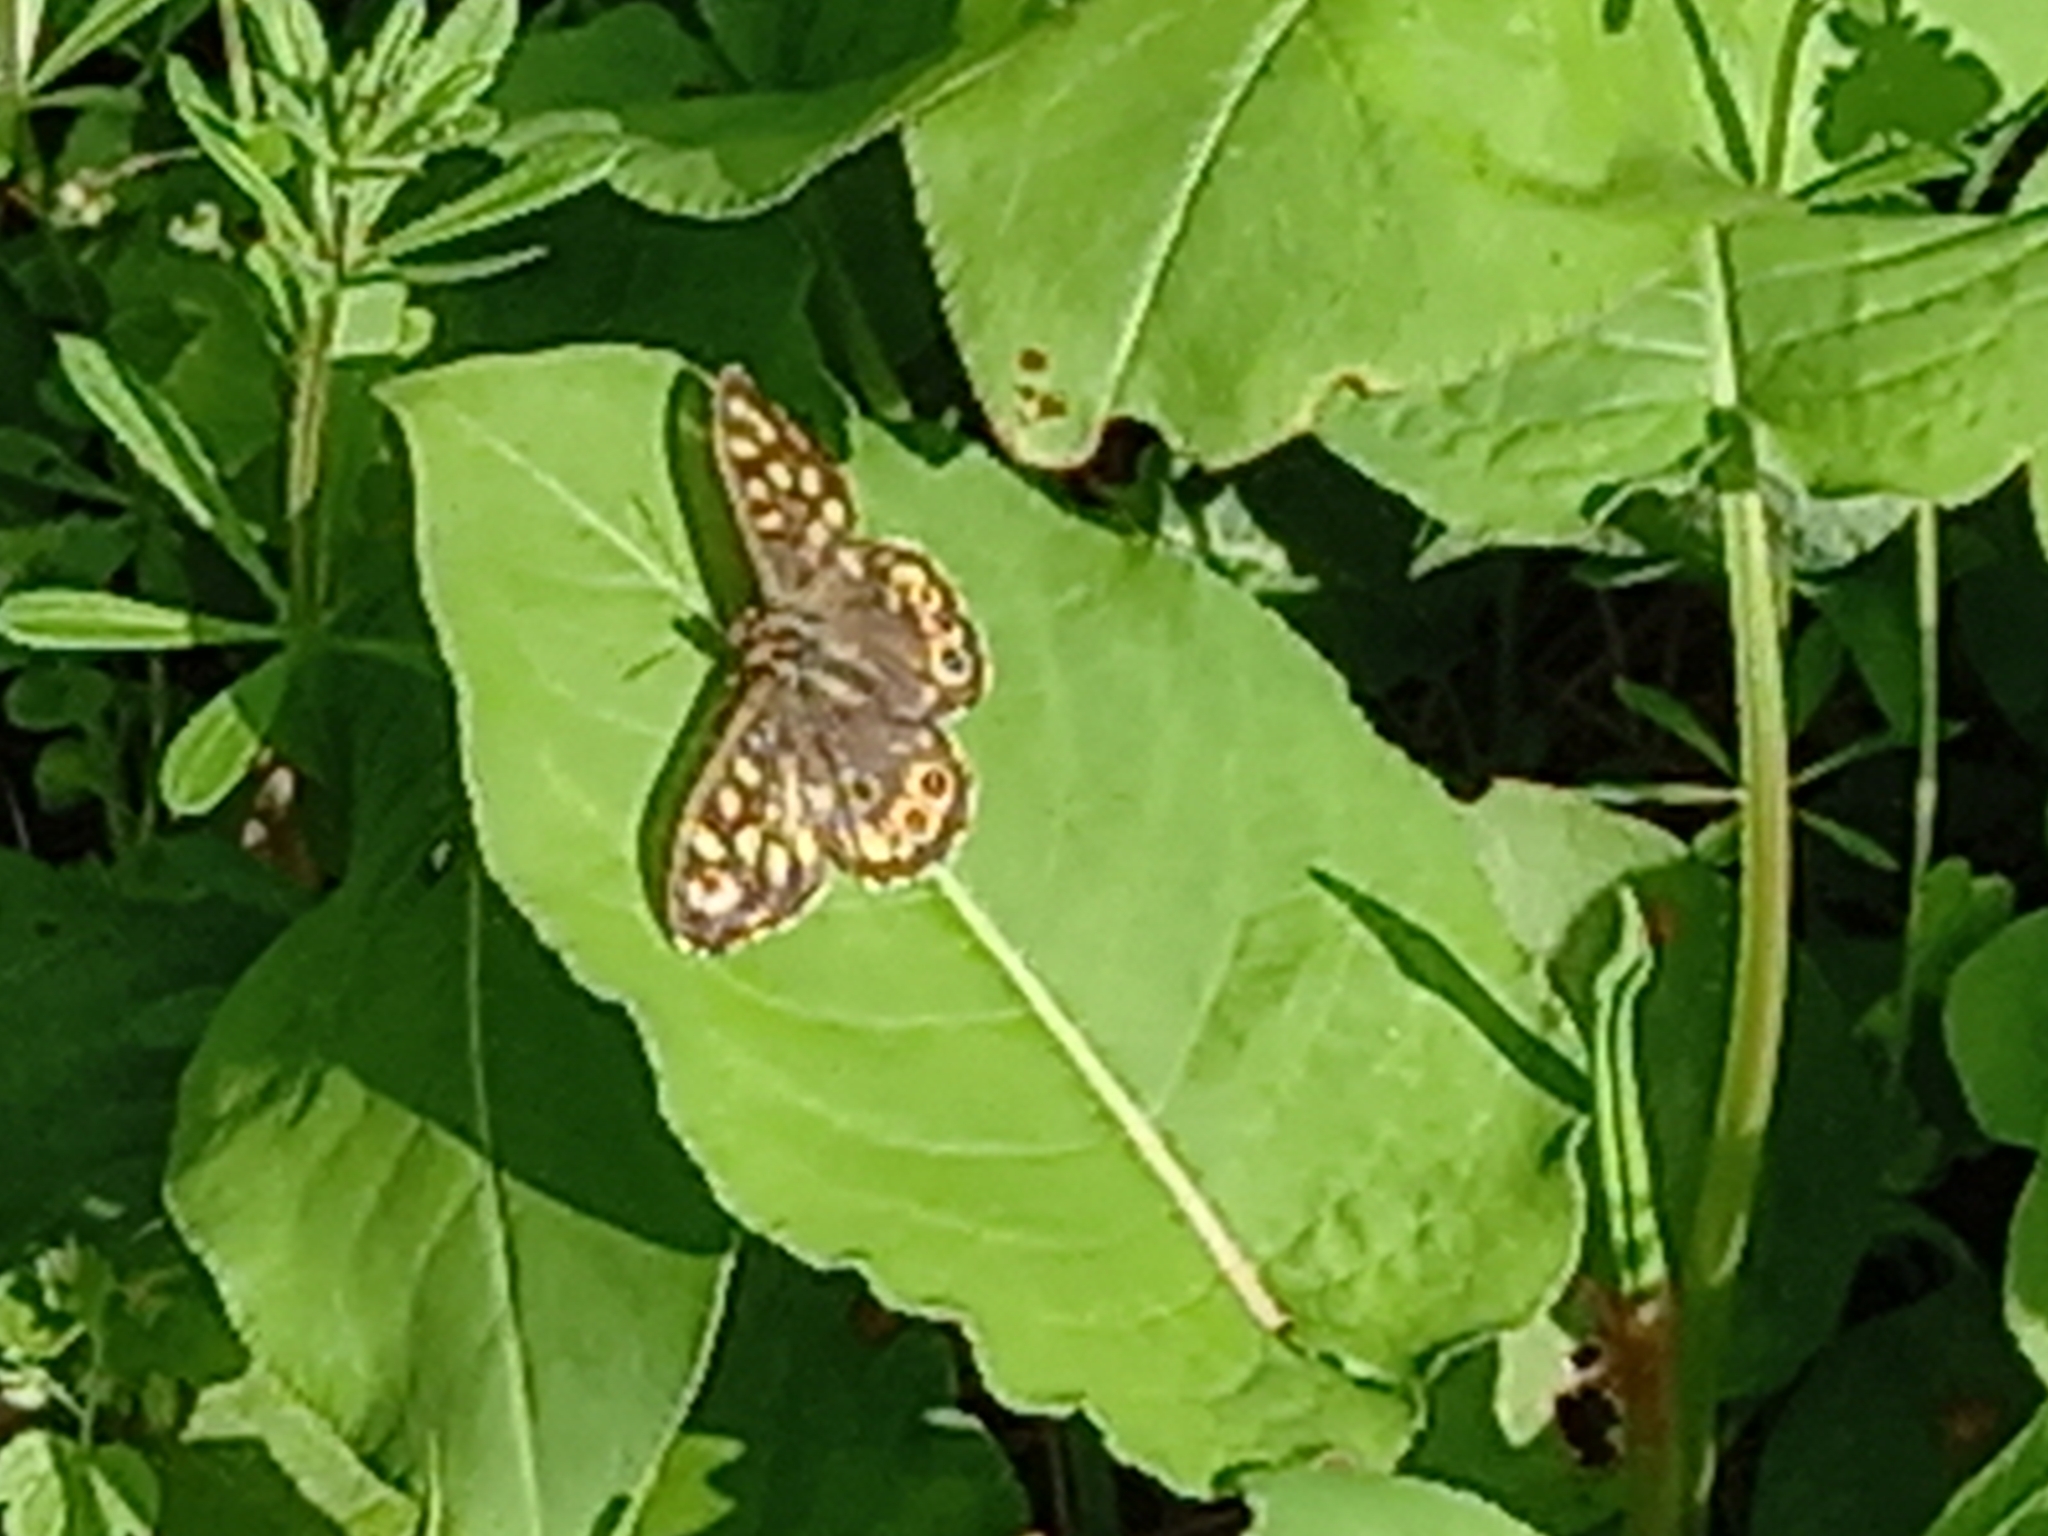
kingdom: Animalia
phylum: Arthropoda
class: Insecta
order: Lepidoptera
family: Nymphalidae
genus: Pararge
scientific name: Pararge aegeria
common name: Speckled wood
